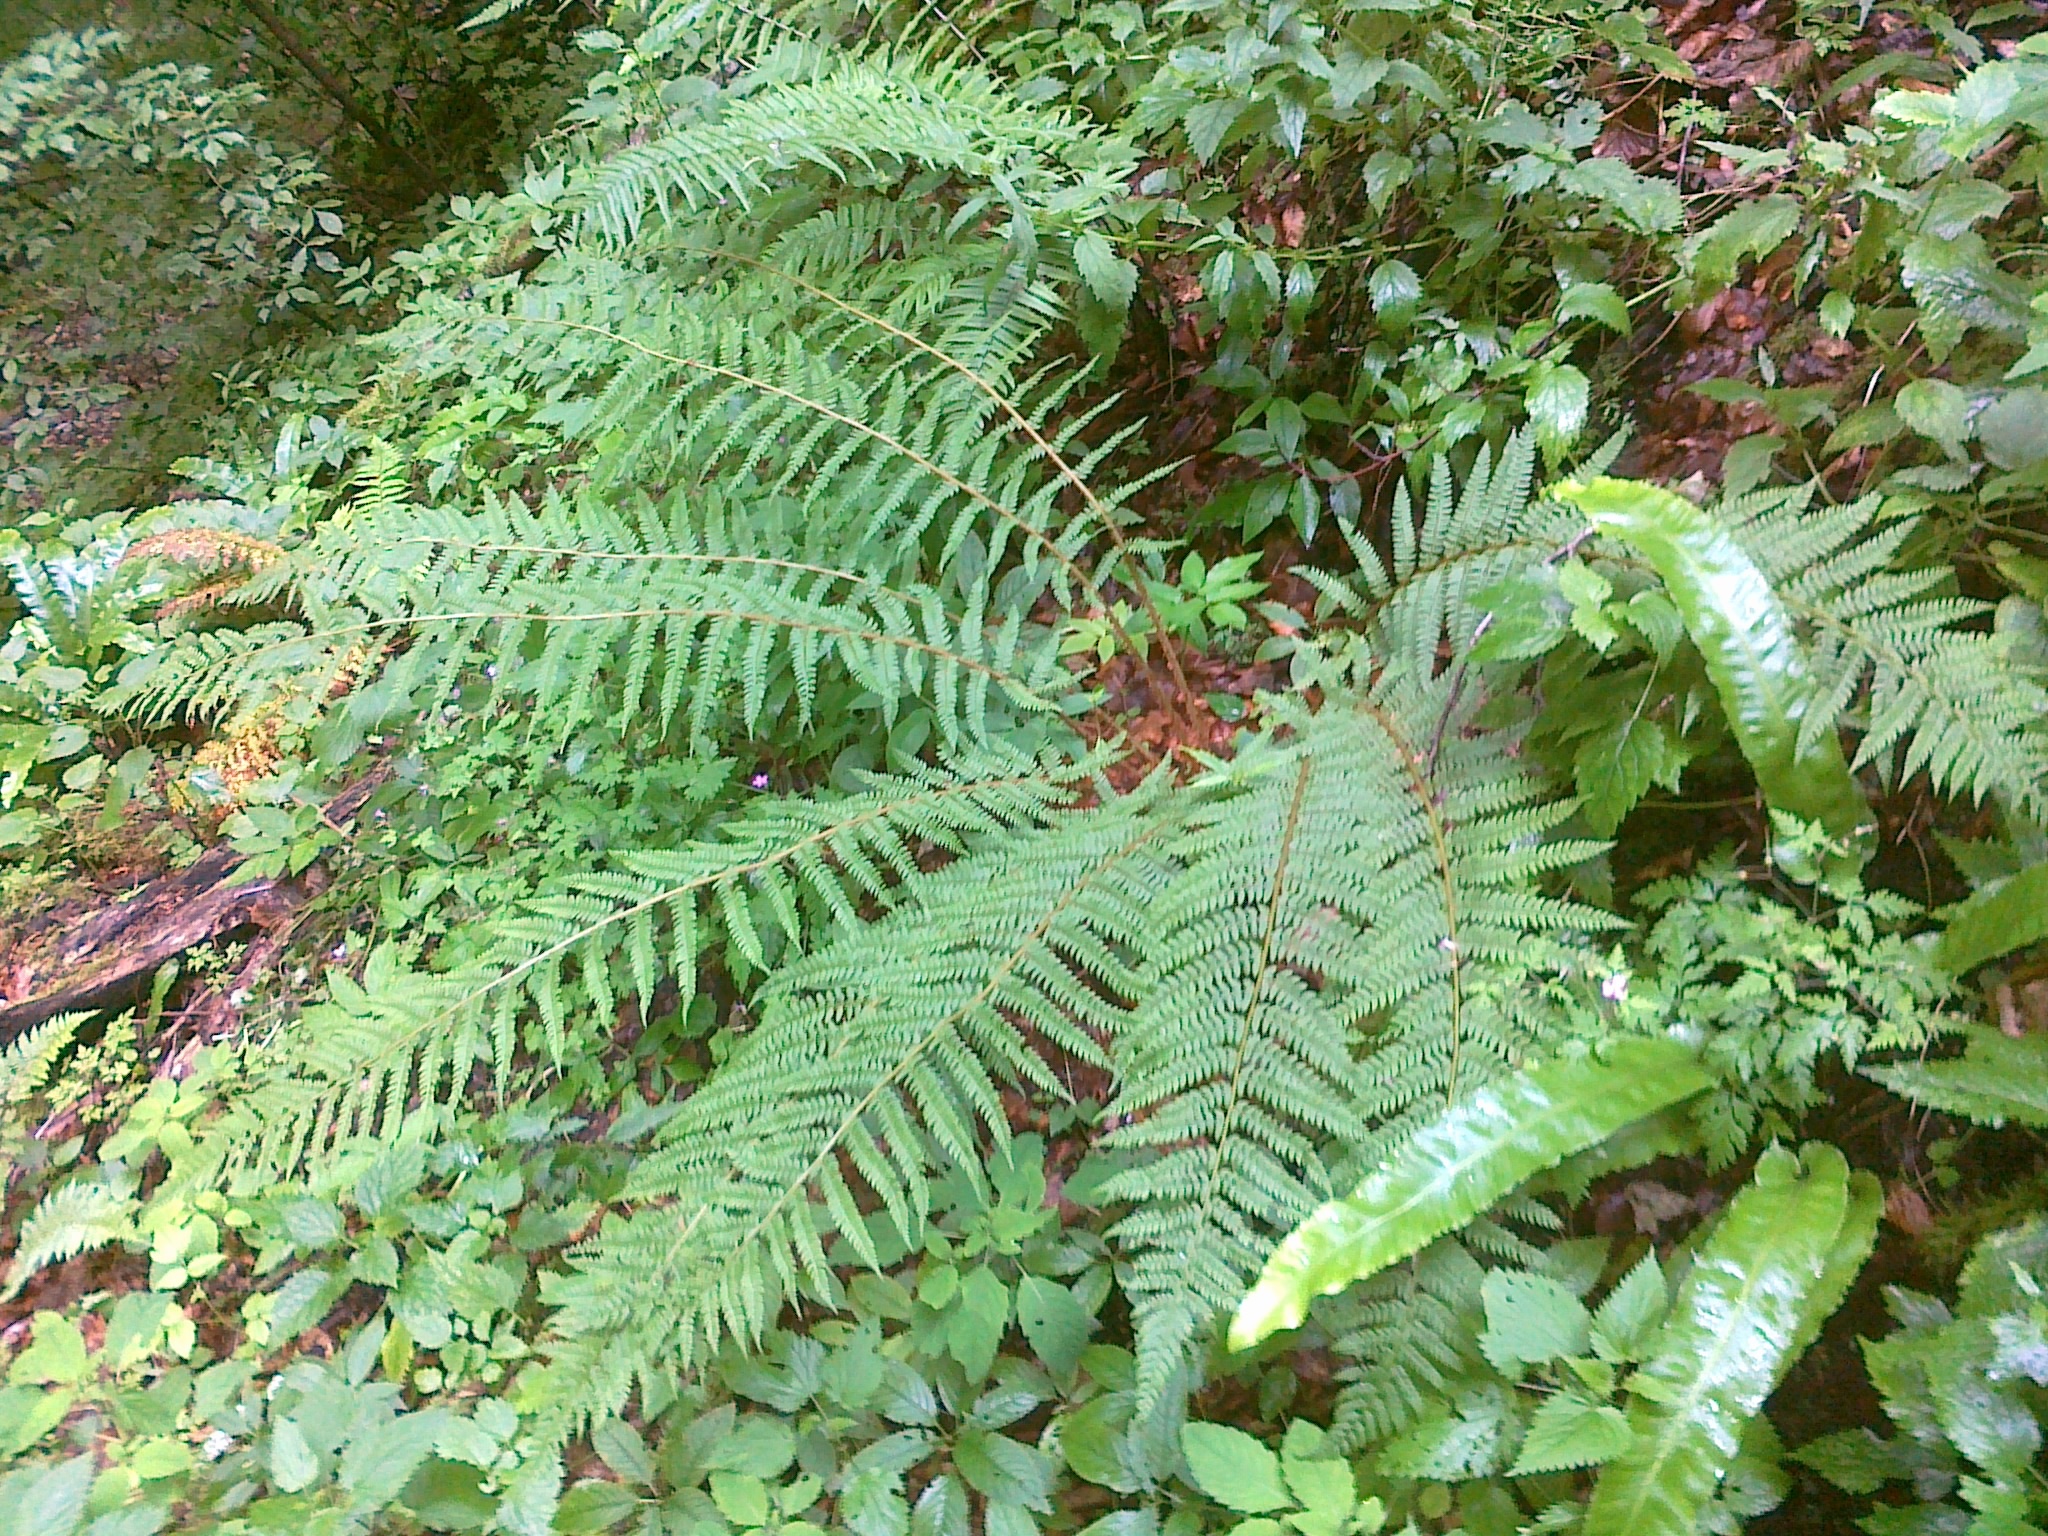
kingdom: Plantae
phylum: Tracheophyta
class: Polypodiopsida
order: Polypodiales
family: Dryopteridaceae
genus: Polystichum
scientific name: Polystichum setiferum
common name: Soft shield-fern
